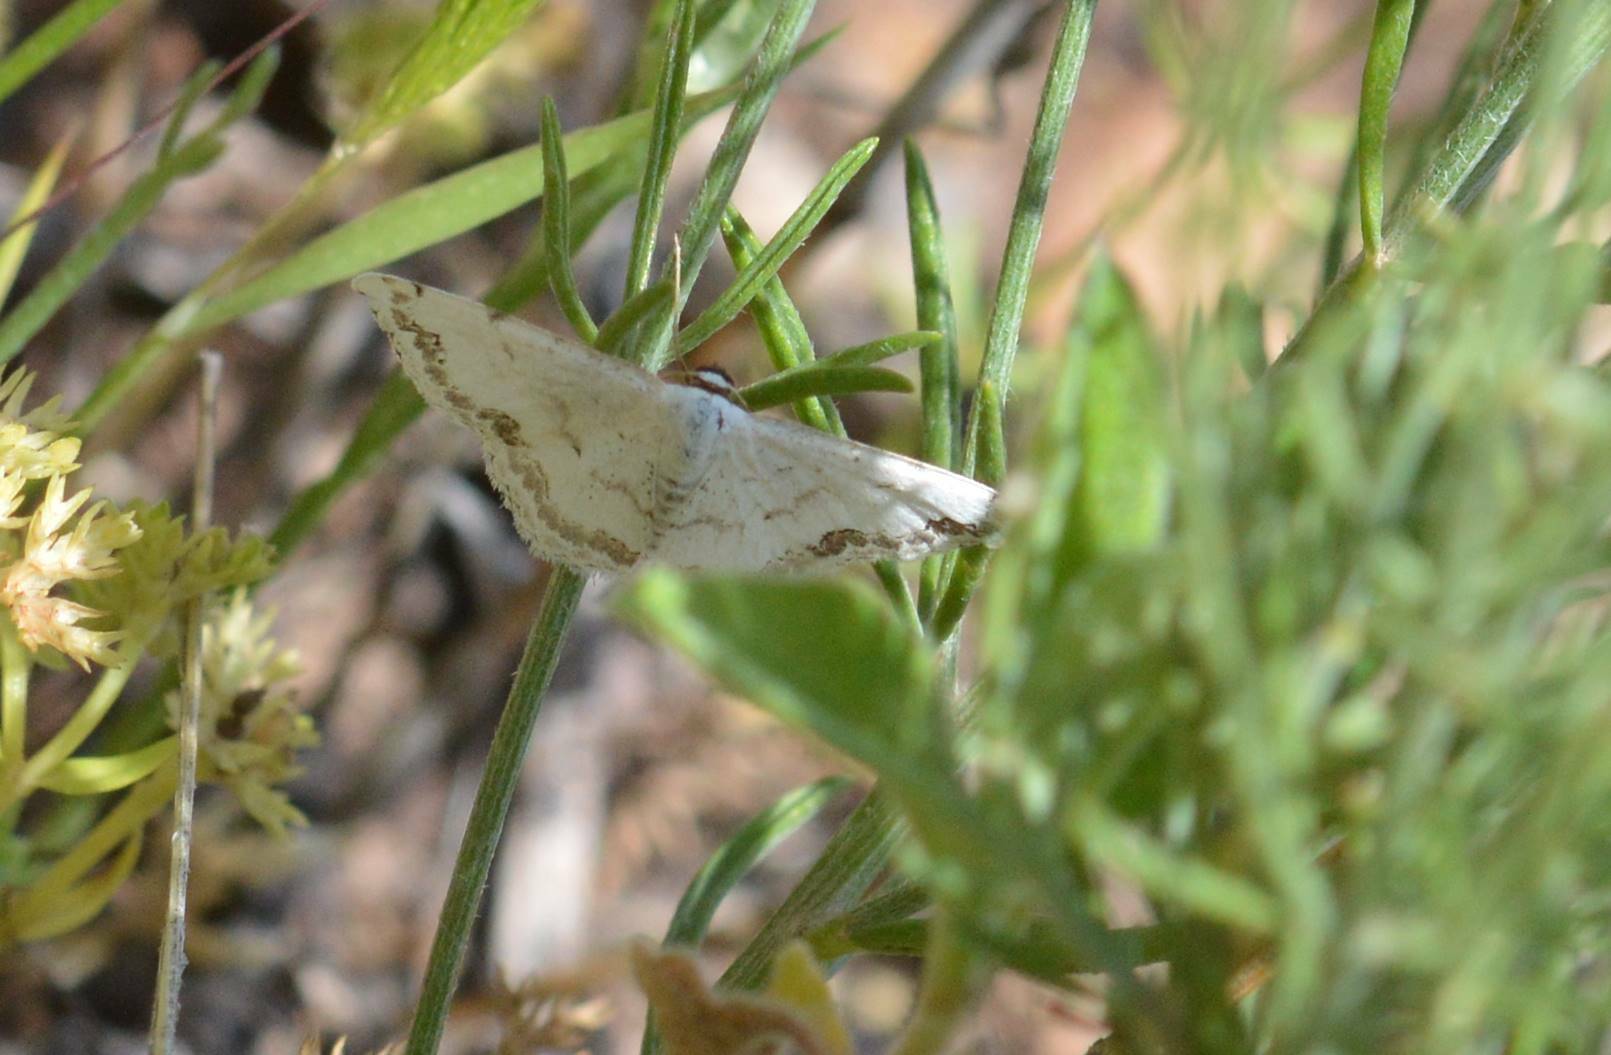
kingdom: Animalia
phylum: Arthropoda
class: Insecta
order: Lepidoptera
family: Geometridae
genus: Scopula
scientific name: Scopula ornata
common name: Lace border
